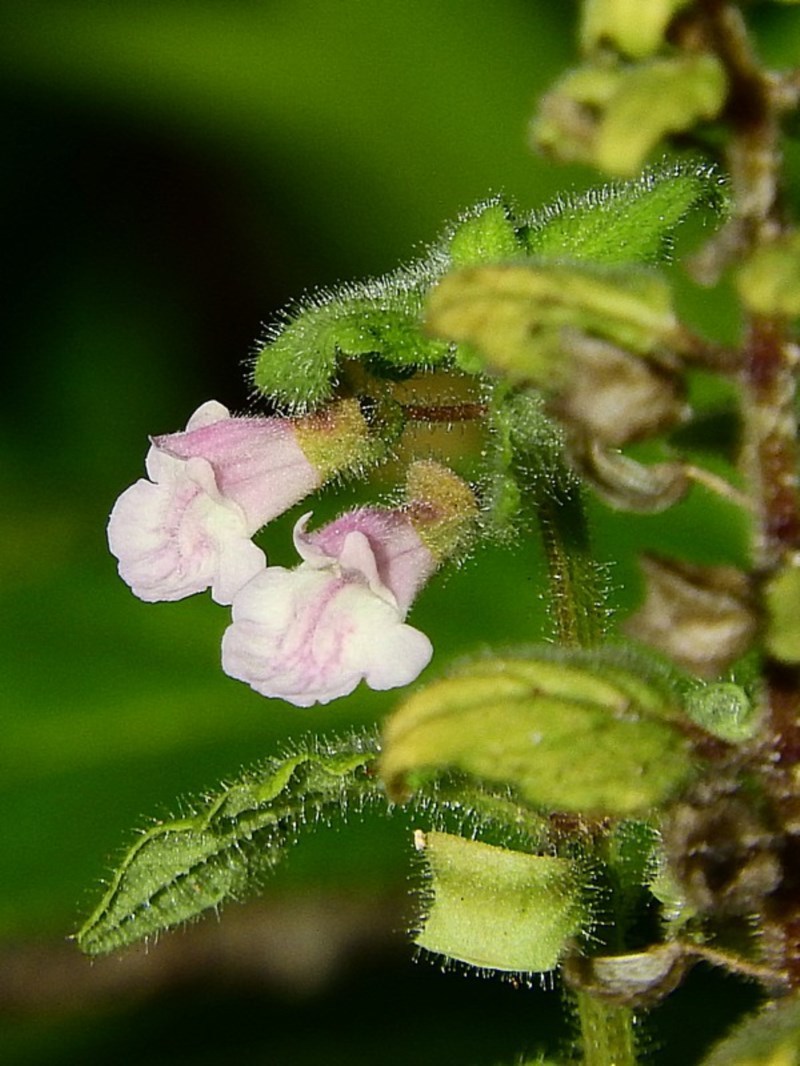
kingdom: Plantae
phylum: Tracheophyta
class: Magnoliopsida
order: Lamiales
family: Lamiaceae
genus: Scutellaria
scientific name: Scutellaria mollis
